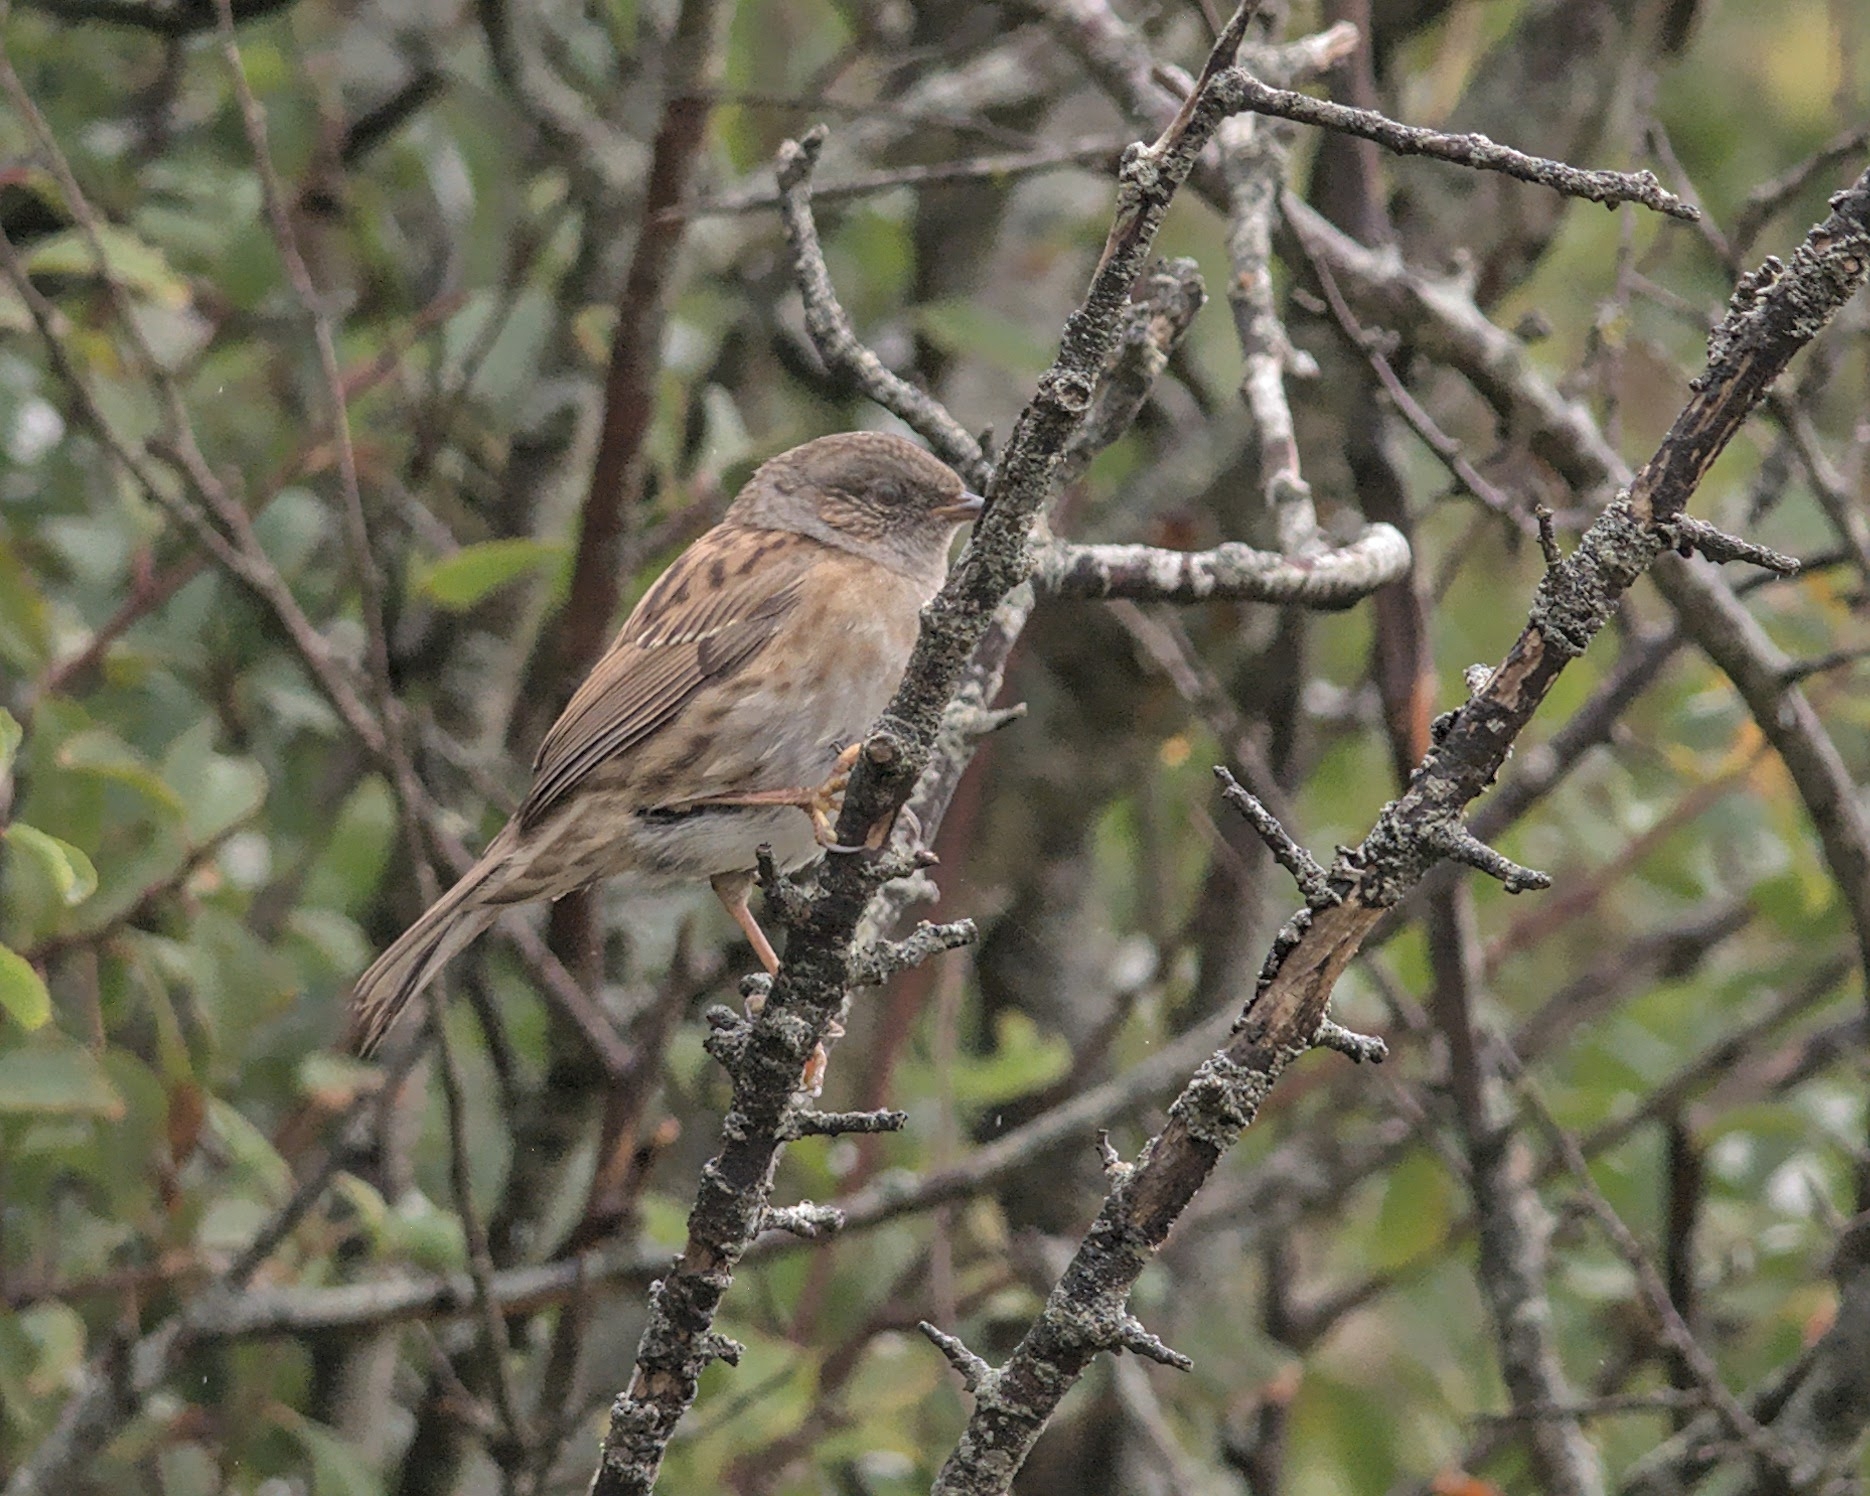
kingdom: Animalia
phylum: Chordata
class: Aves
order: Passeriformes
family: Prunellidae
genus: Prunella
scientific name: Prunella modularis
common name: Dunnock
